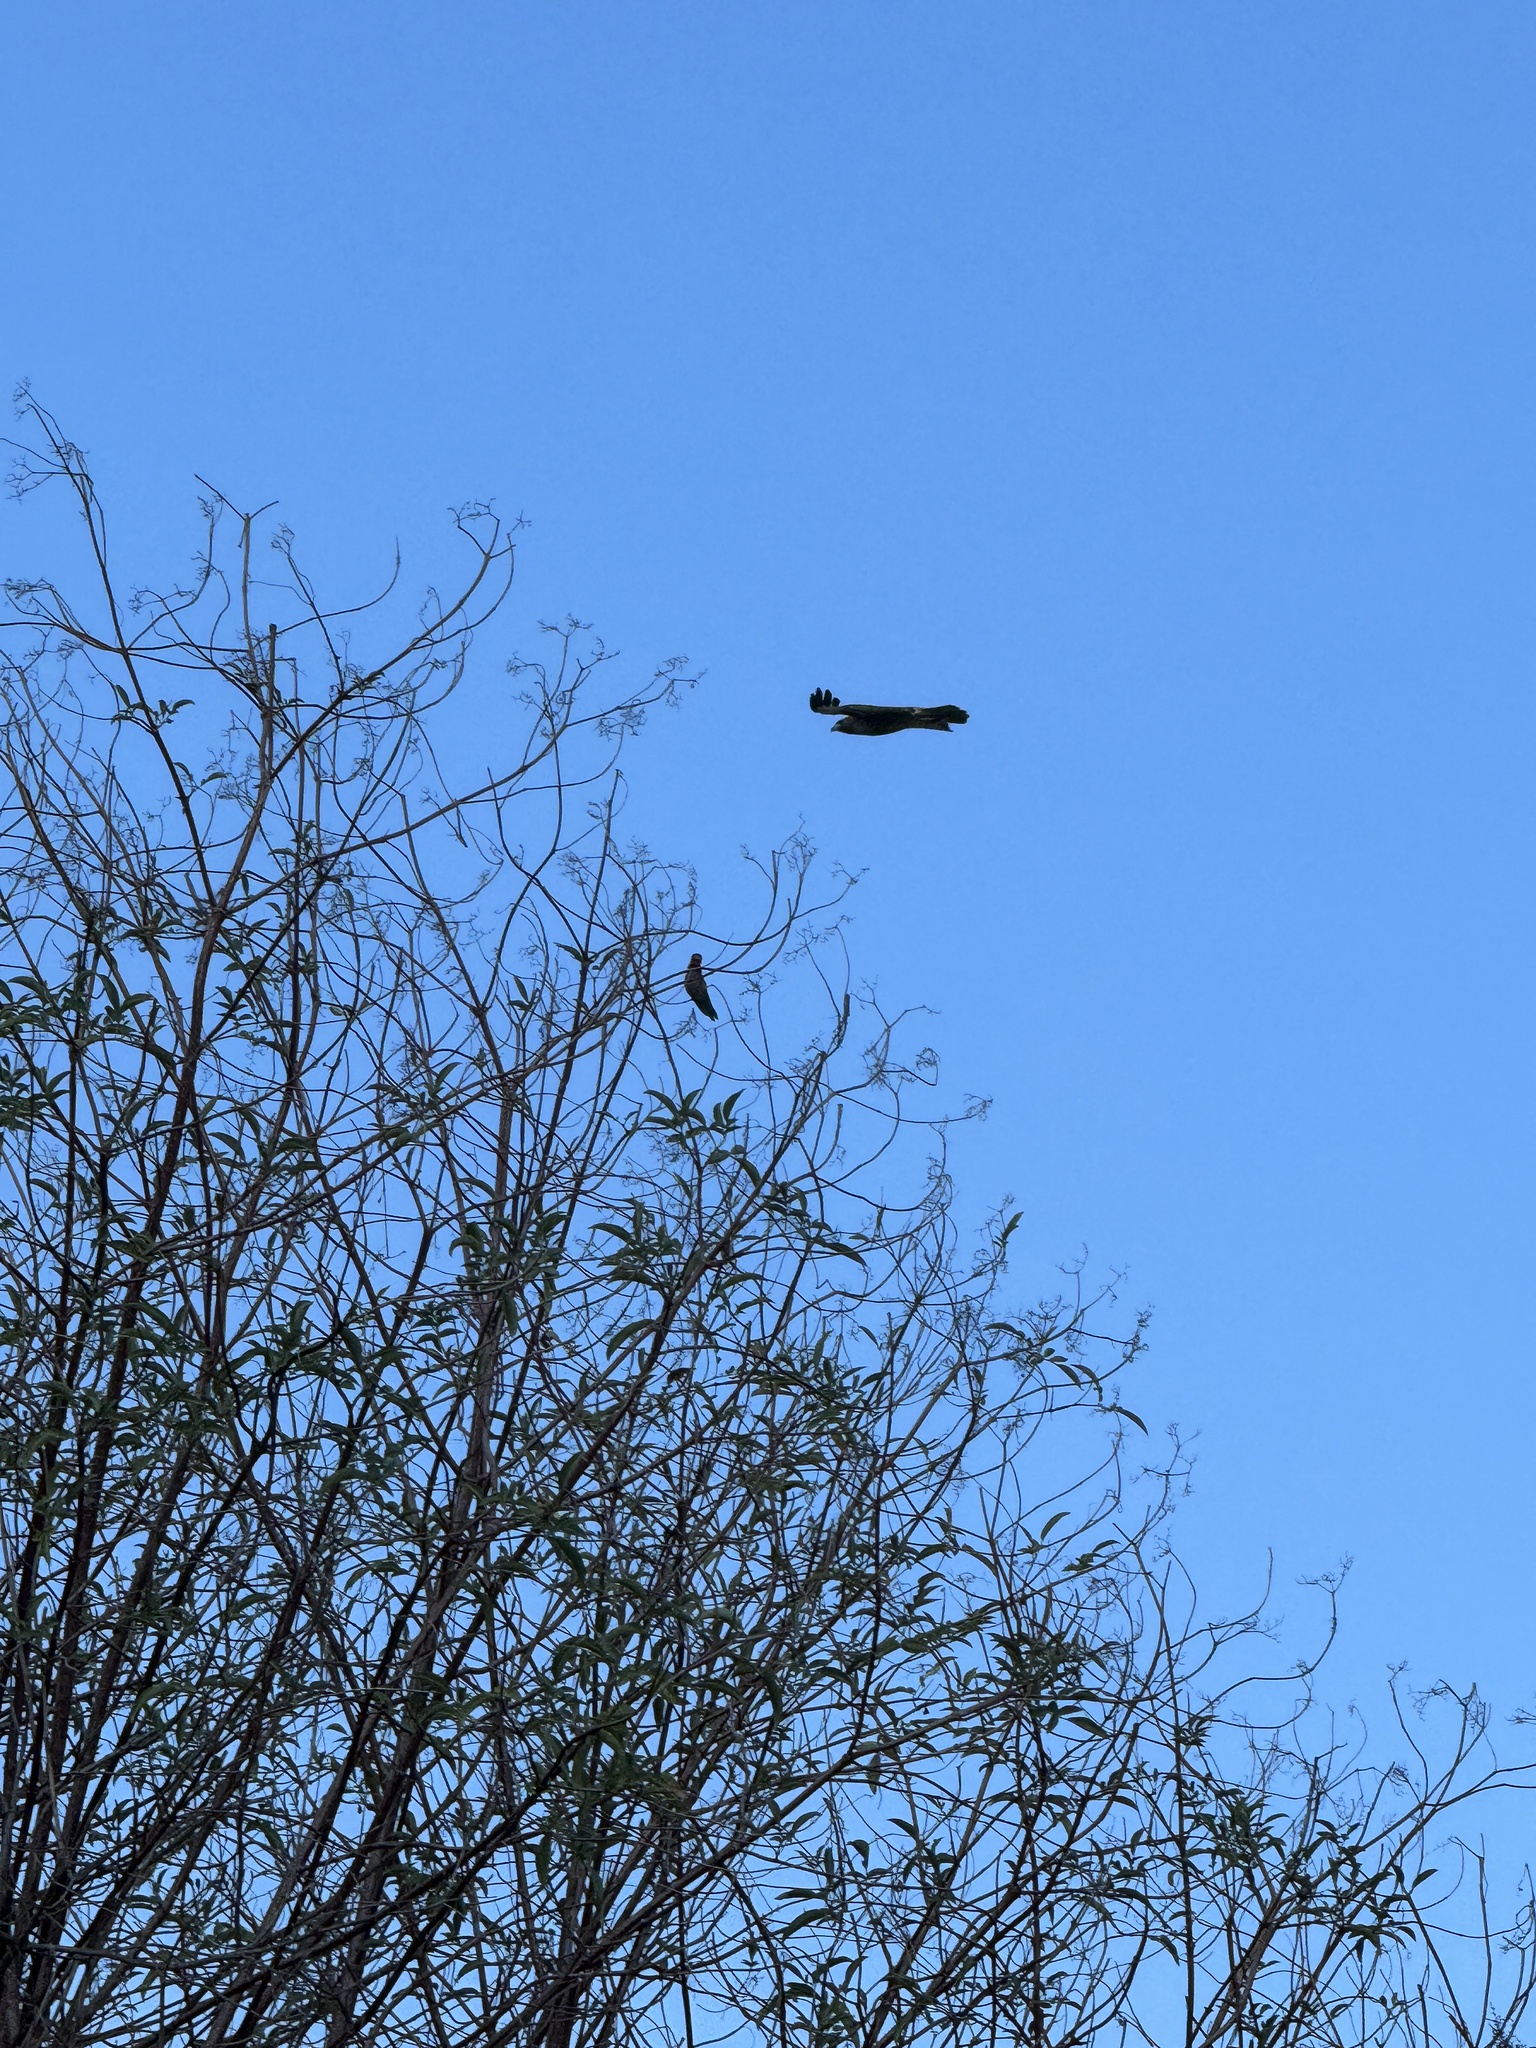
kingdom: Animalia
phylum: Chordata
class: Aves
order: Accipitriformes
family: Accipitridae
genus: Buteo
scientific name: Buteo jamaicensis
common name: Red-tailed hawk
